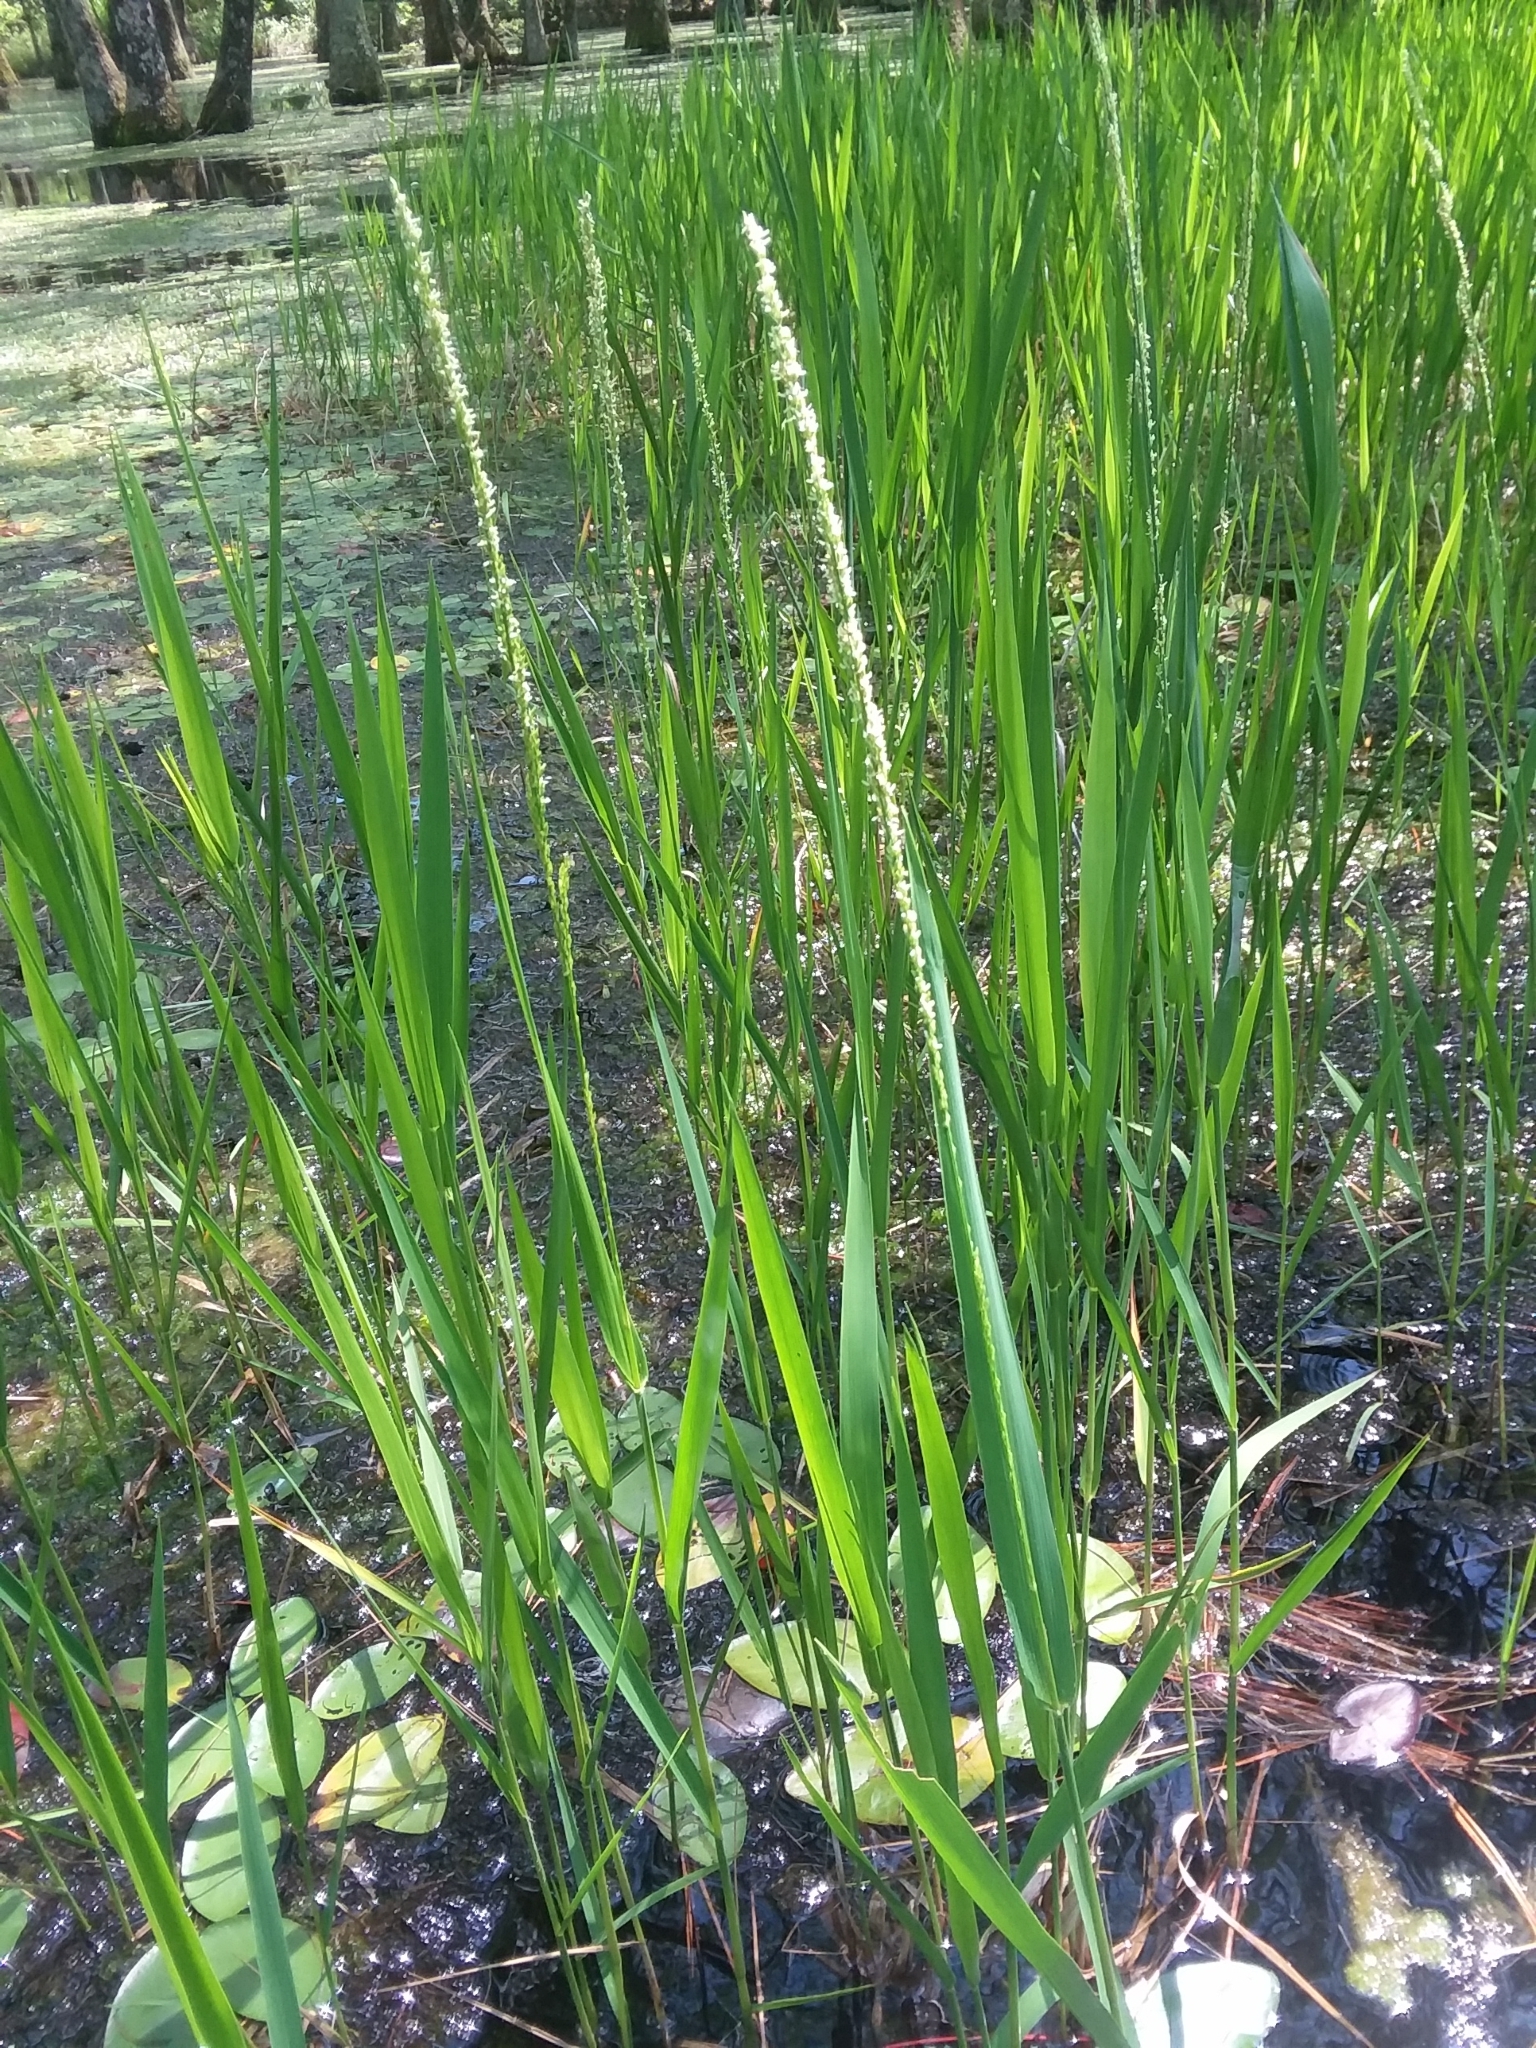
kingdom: Plantae
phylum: Tracheophyta
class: Liliopsida
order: Poales
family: Poaceae
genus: Panicum
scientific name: Panicum hemitomon
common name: Maidencane
